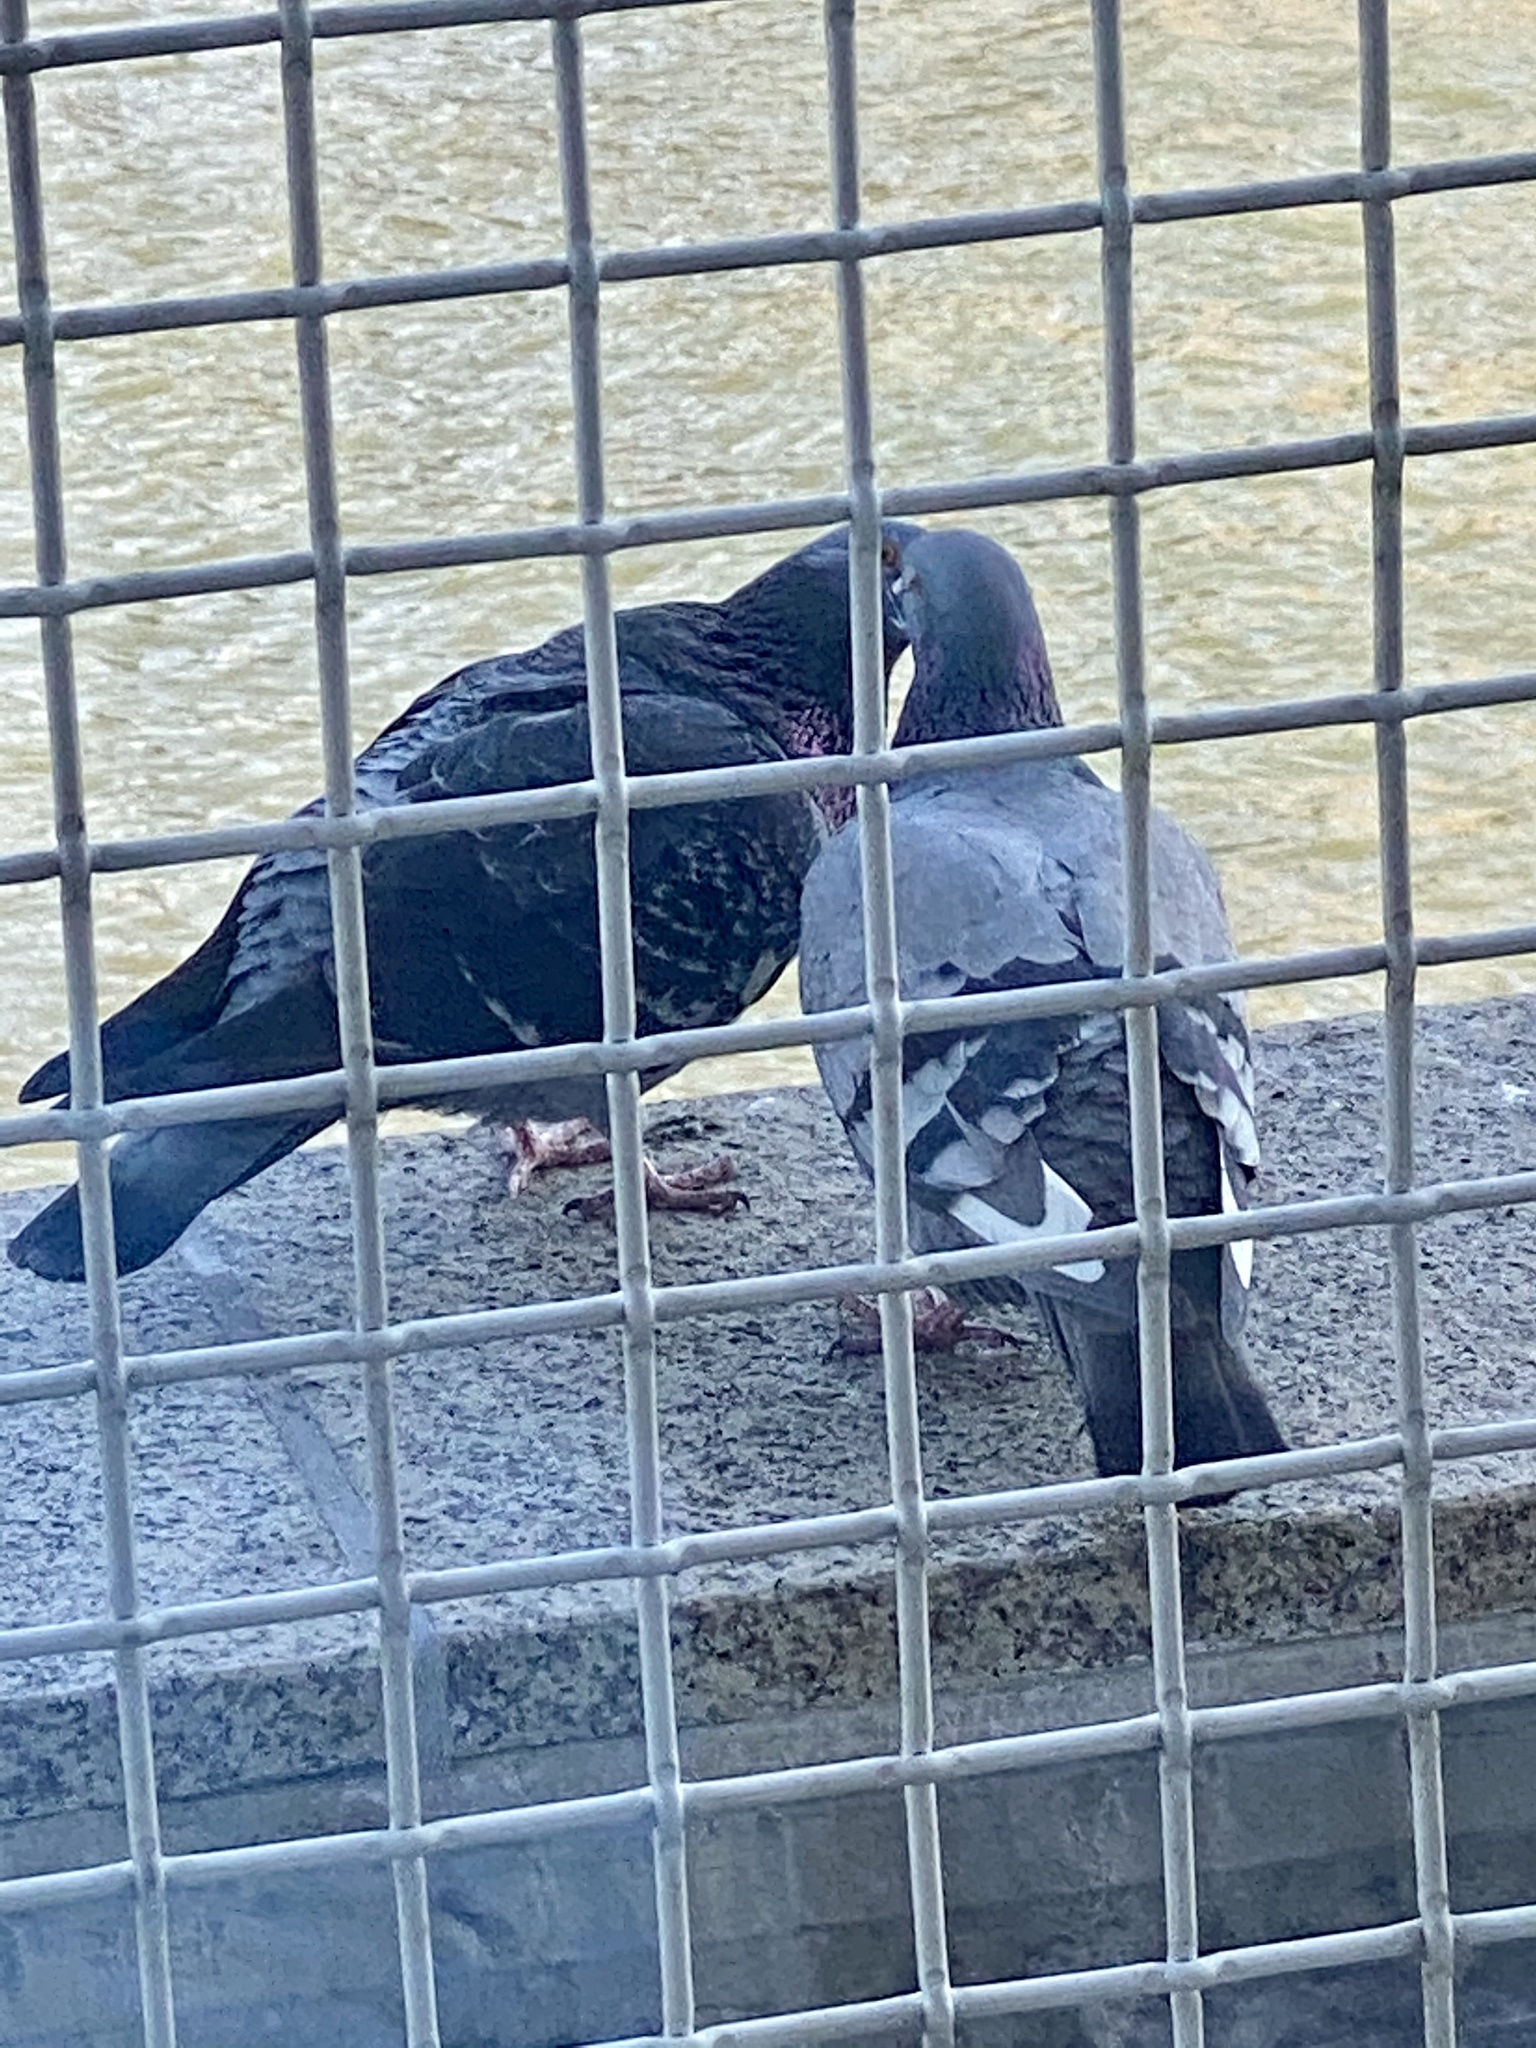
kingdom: Animalia
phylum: Chordata
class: Aves
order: Columbiformes
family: Columbidae
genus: Columba
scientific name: Columba livia
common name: Rock pigeon
